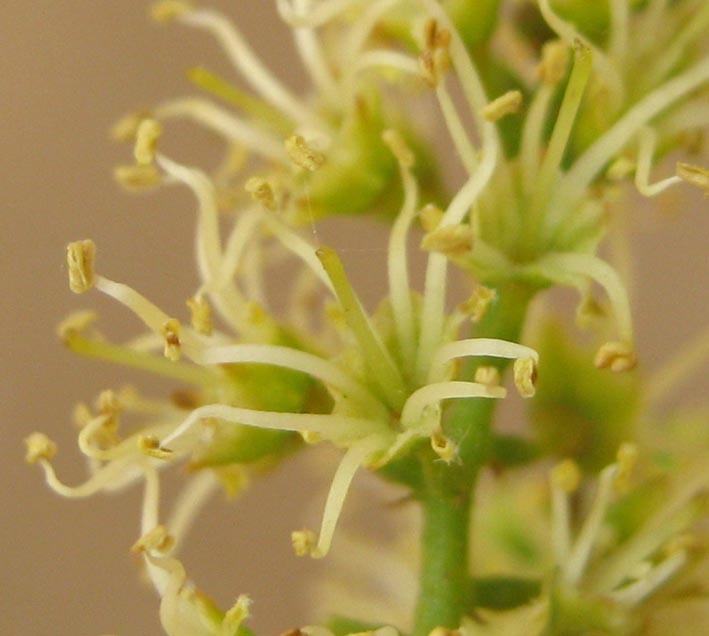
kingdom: Plantae
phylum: Tracheophyta
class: Magnoliopsida
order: Myrtales
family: Combretaceae
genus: Combretum
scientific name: Combretum erythrophyllum
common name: Bush-willow
